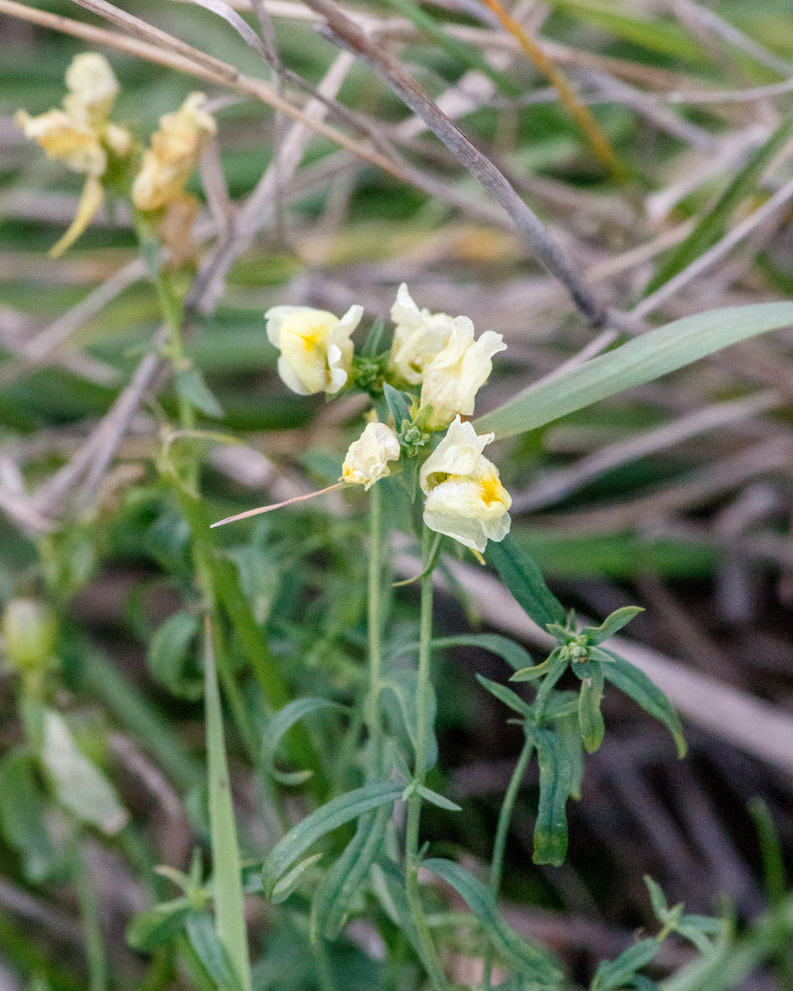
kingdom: Plantae
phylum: Tracheophyta
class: Magnoliopsida
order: Lamiales
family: Plantaginaceae
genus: Linaria
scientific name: Linaria vulgaris
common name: Butter and eggs
